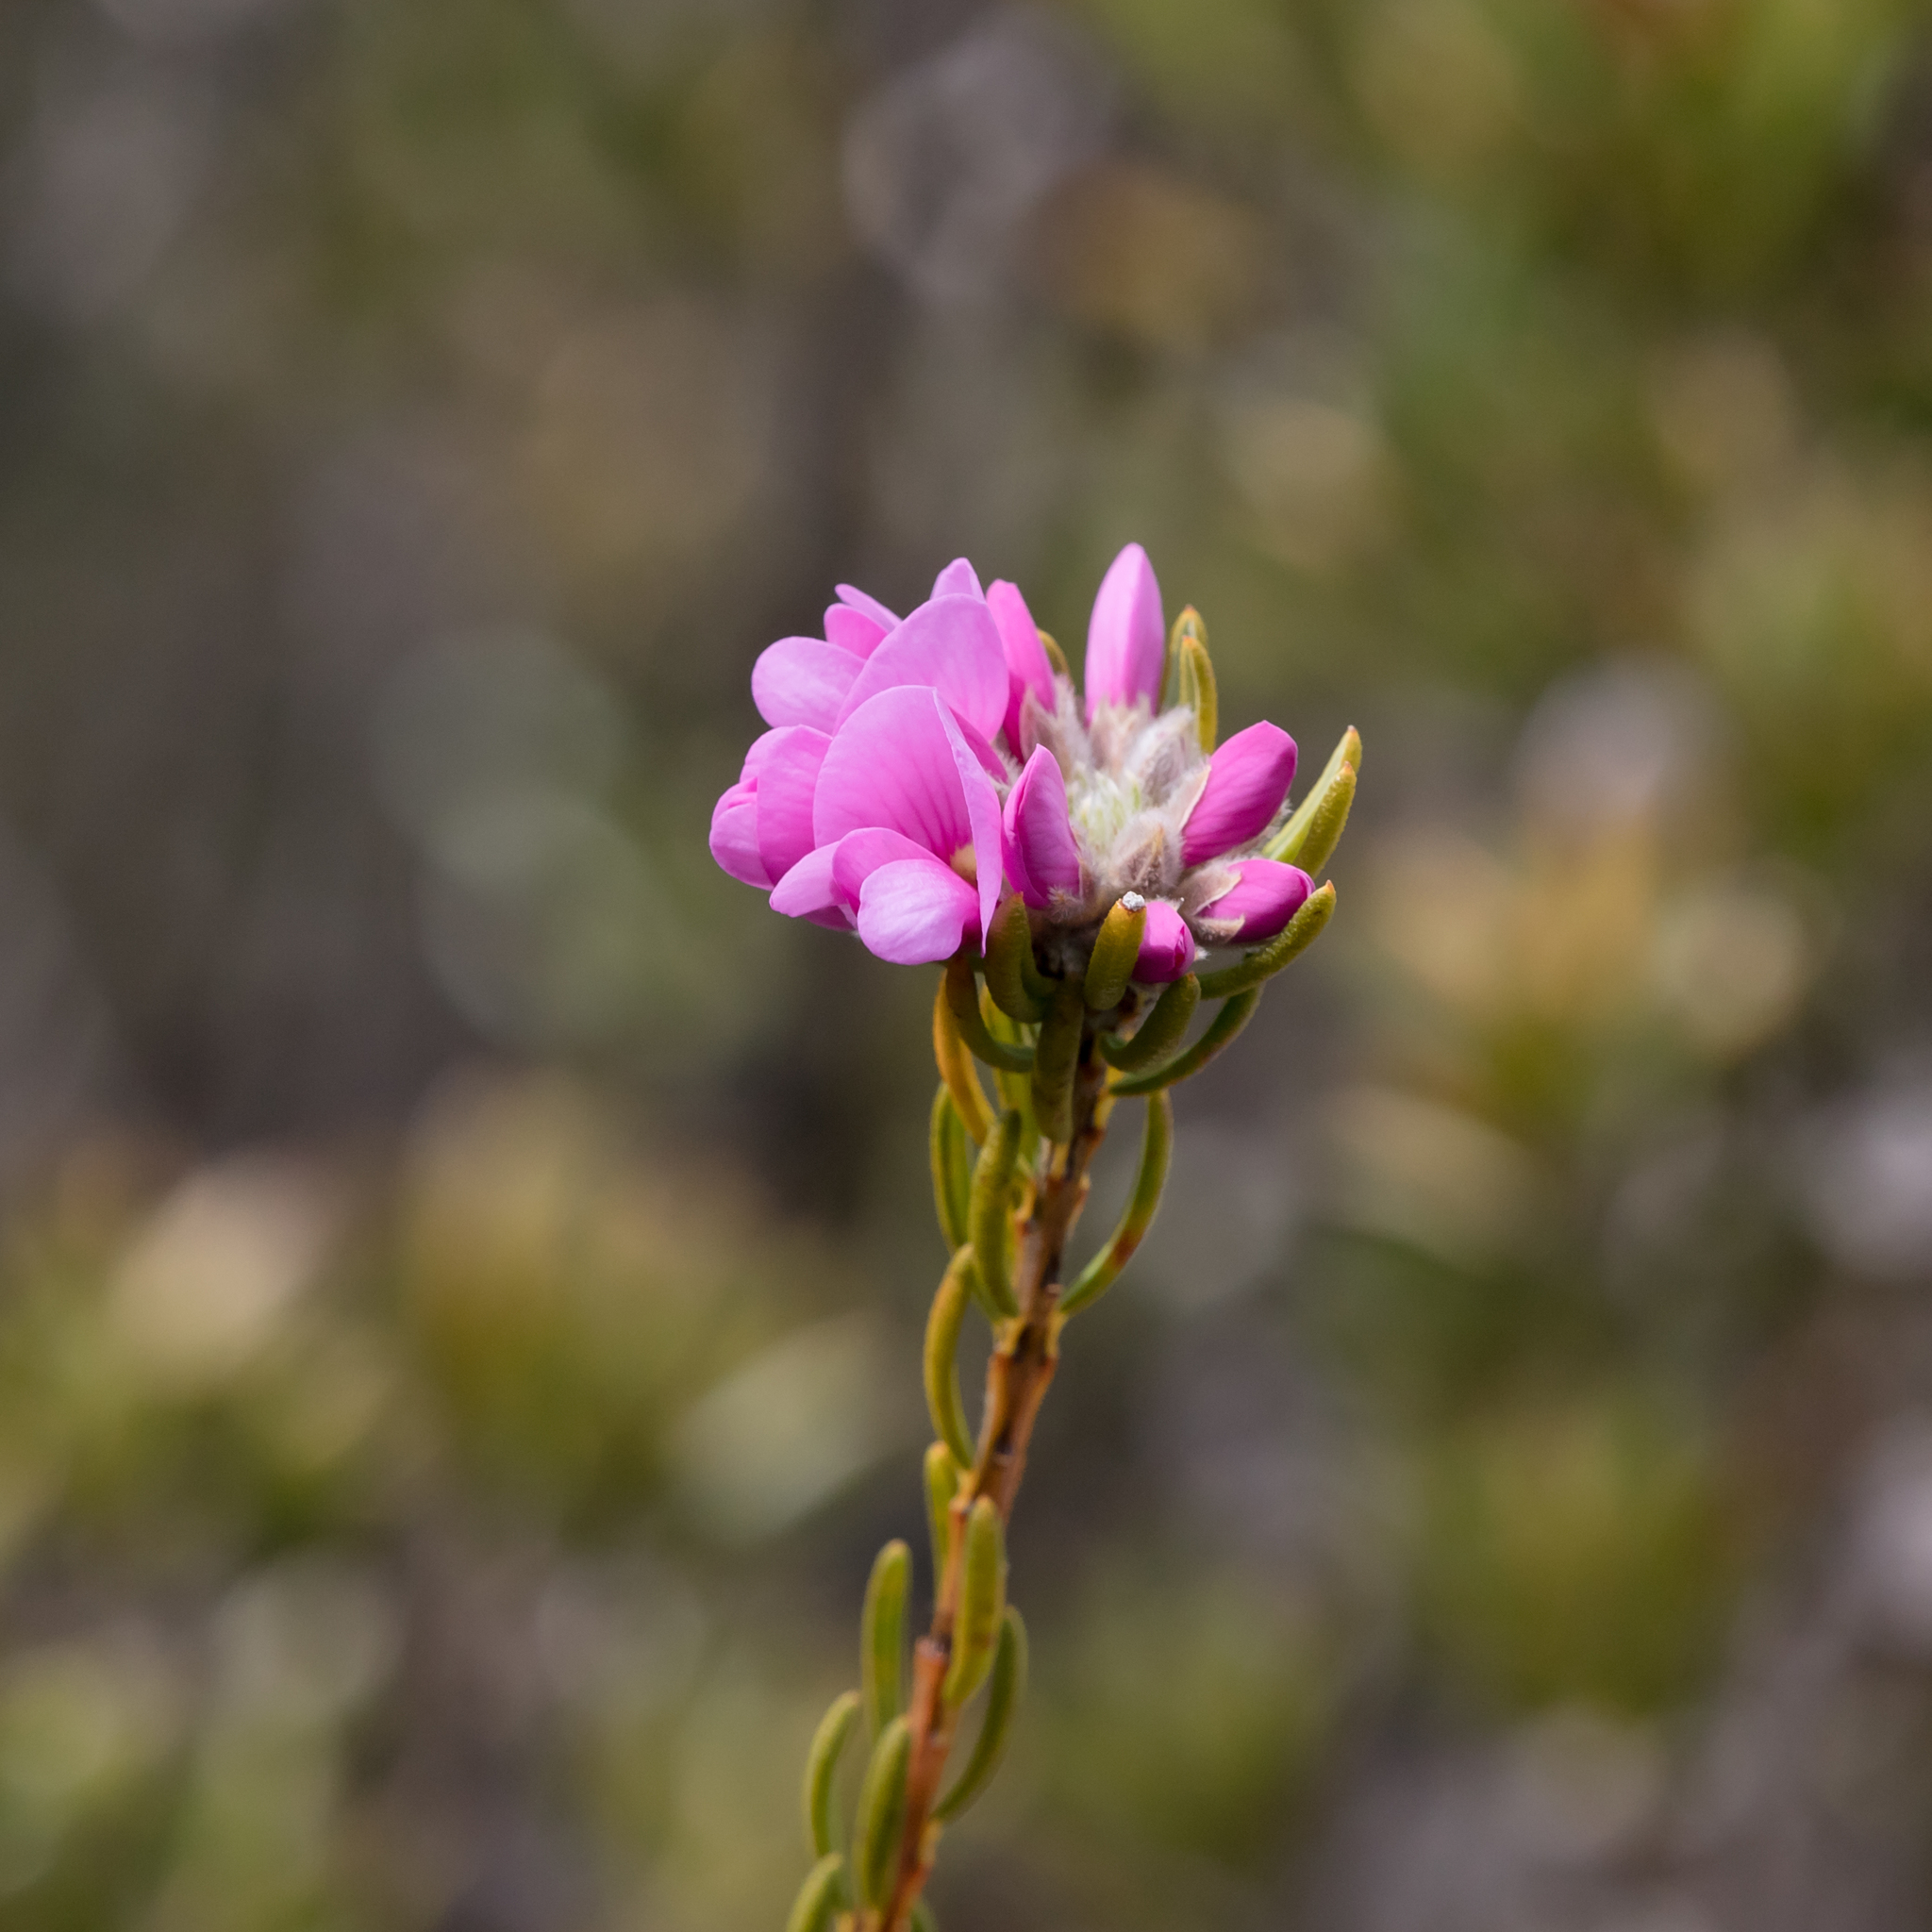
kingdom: Plantae
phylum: Tracheophyta
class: Magnoliopsida
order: Fabales
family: Fabaceae
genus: Pultenaea
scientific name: Pultenaea subalpina
